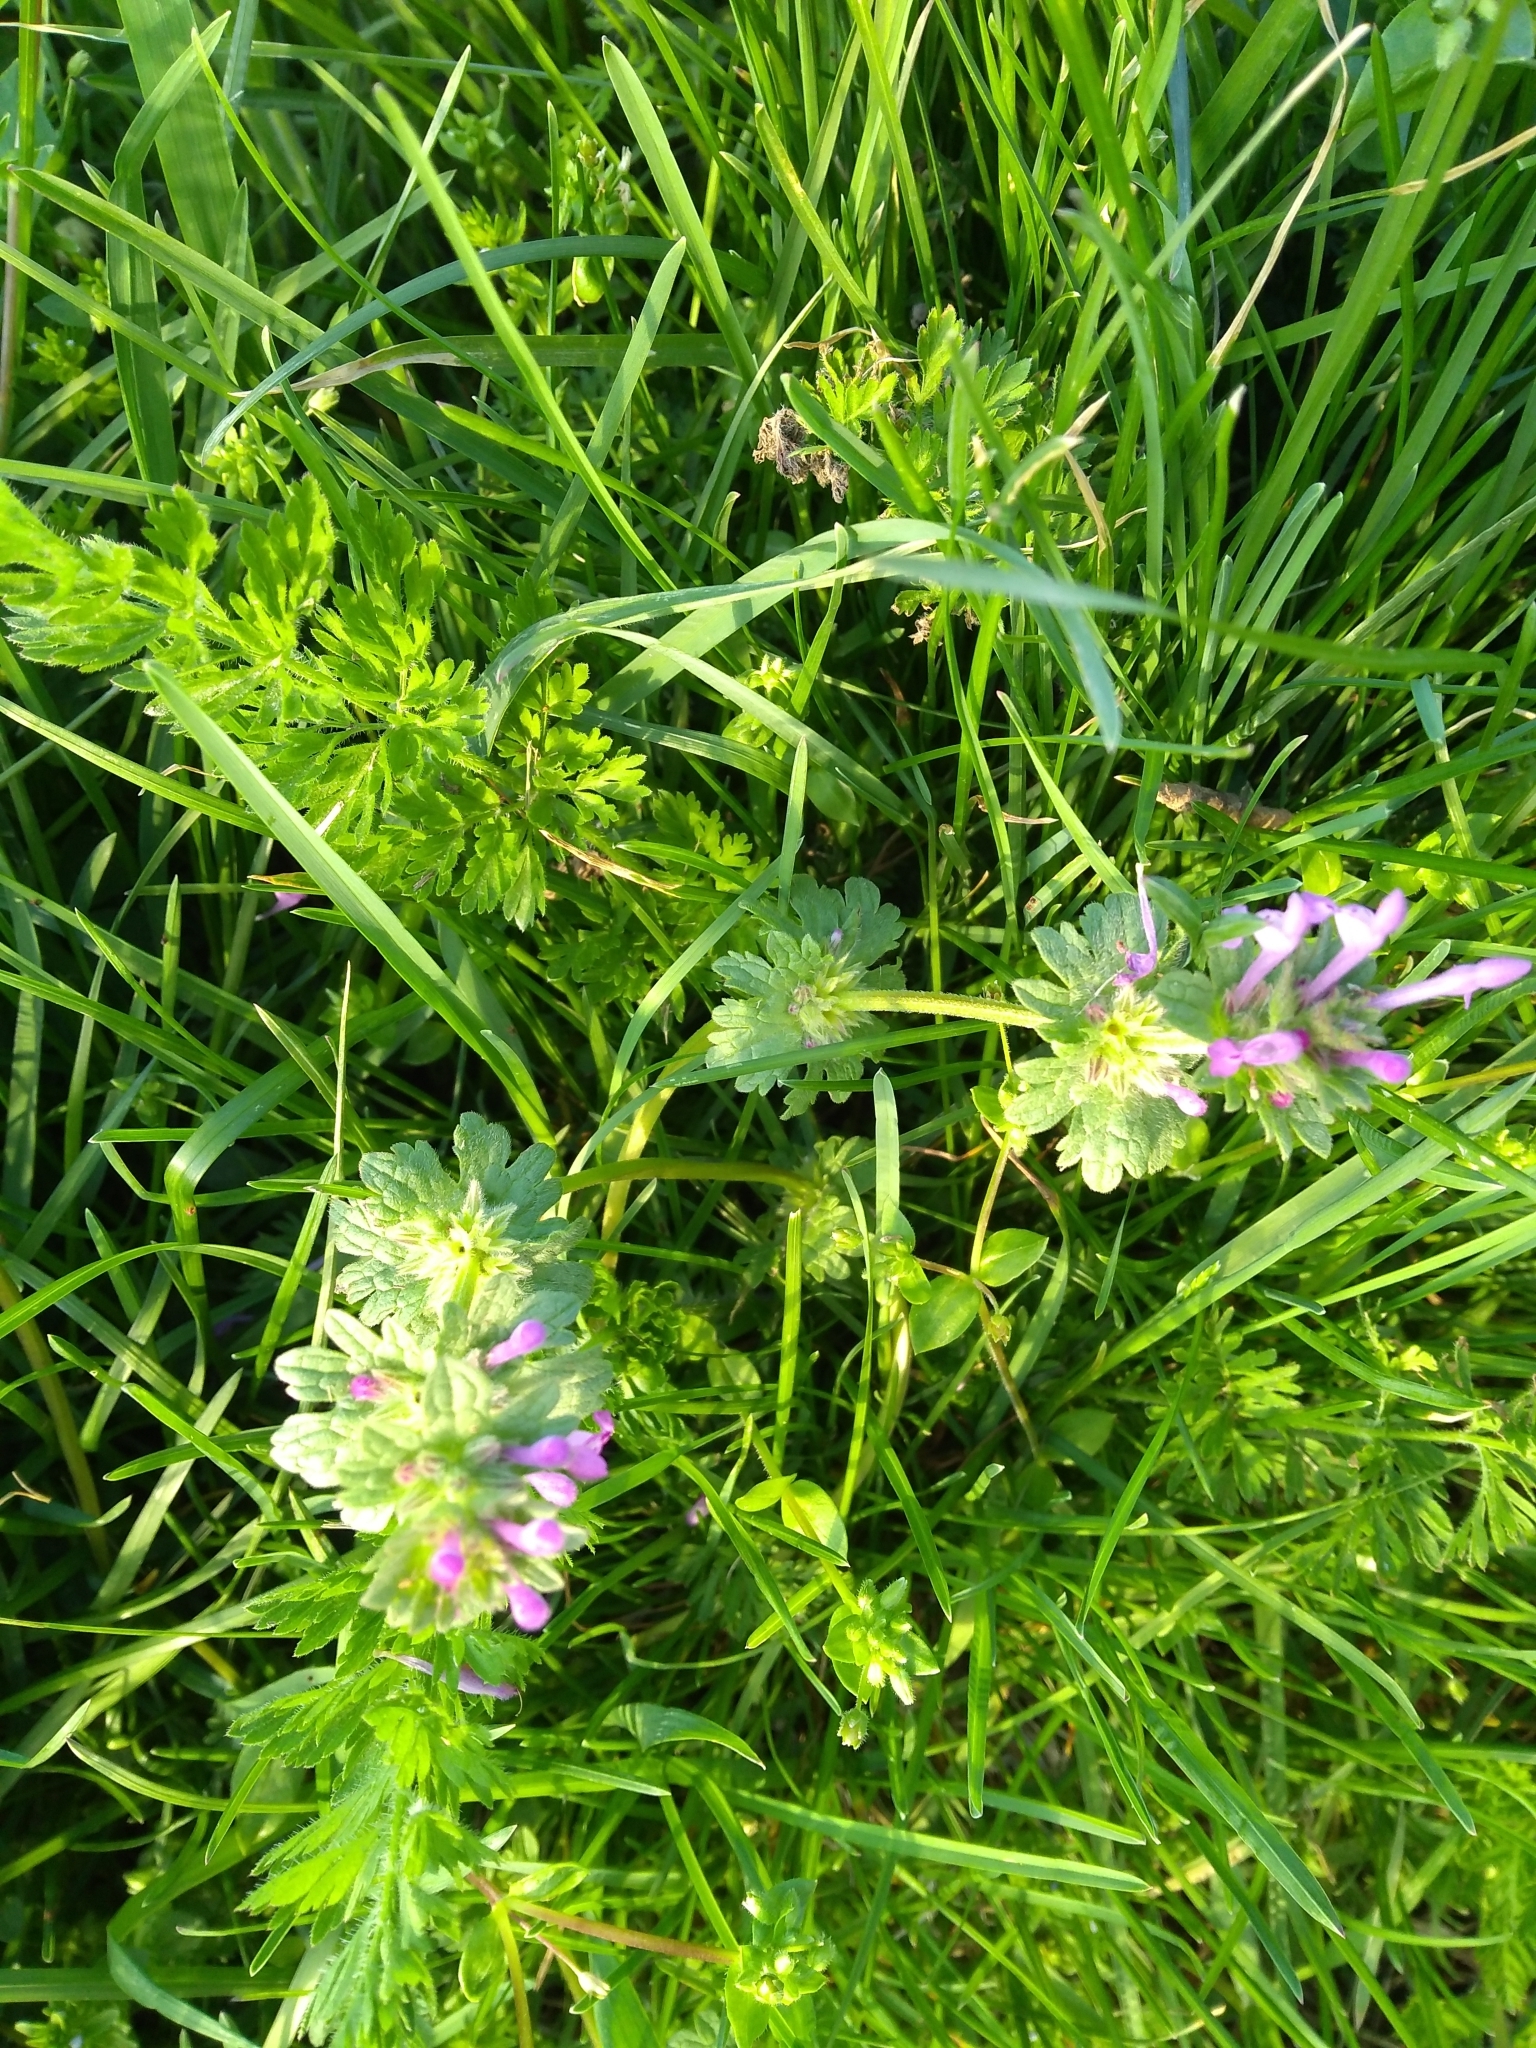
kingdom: Plantae
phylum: Tracheophyta
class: Magnoliopsida
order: Lamiales
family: Lamiaceae
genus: Lamium
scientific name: Lamium amplexicaule
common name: Henbit dead-nettle
